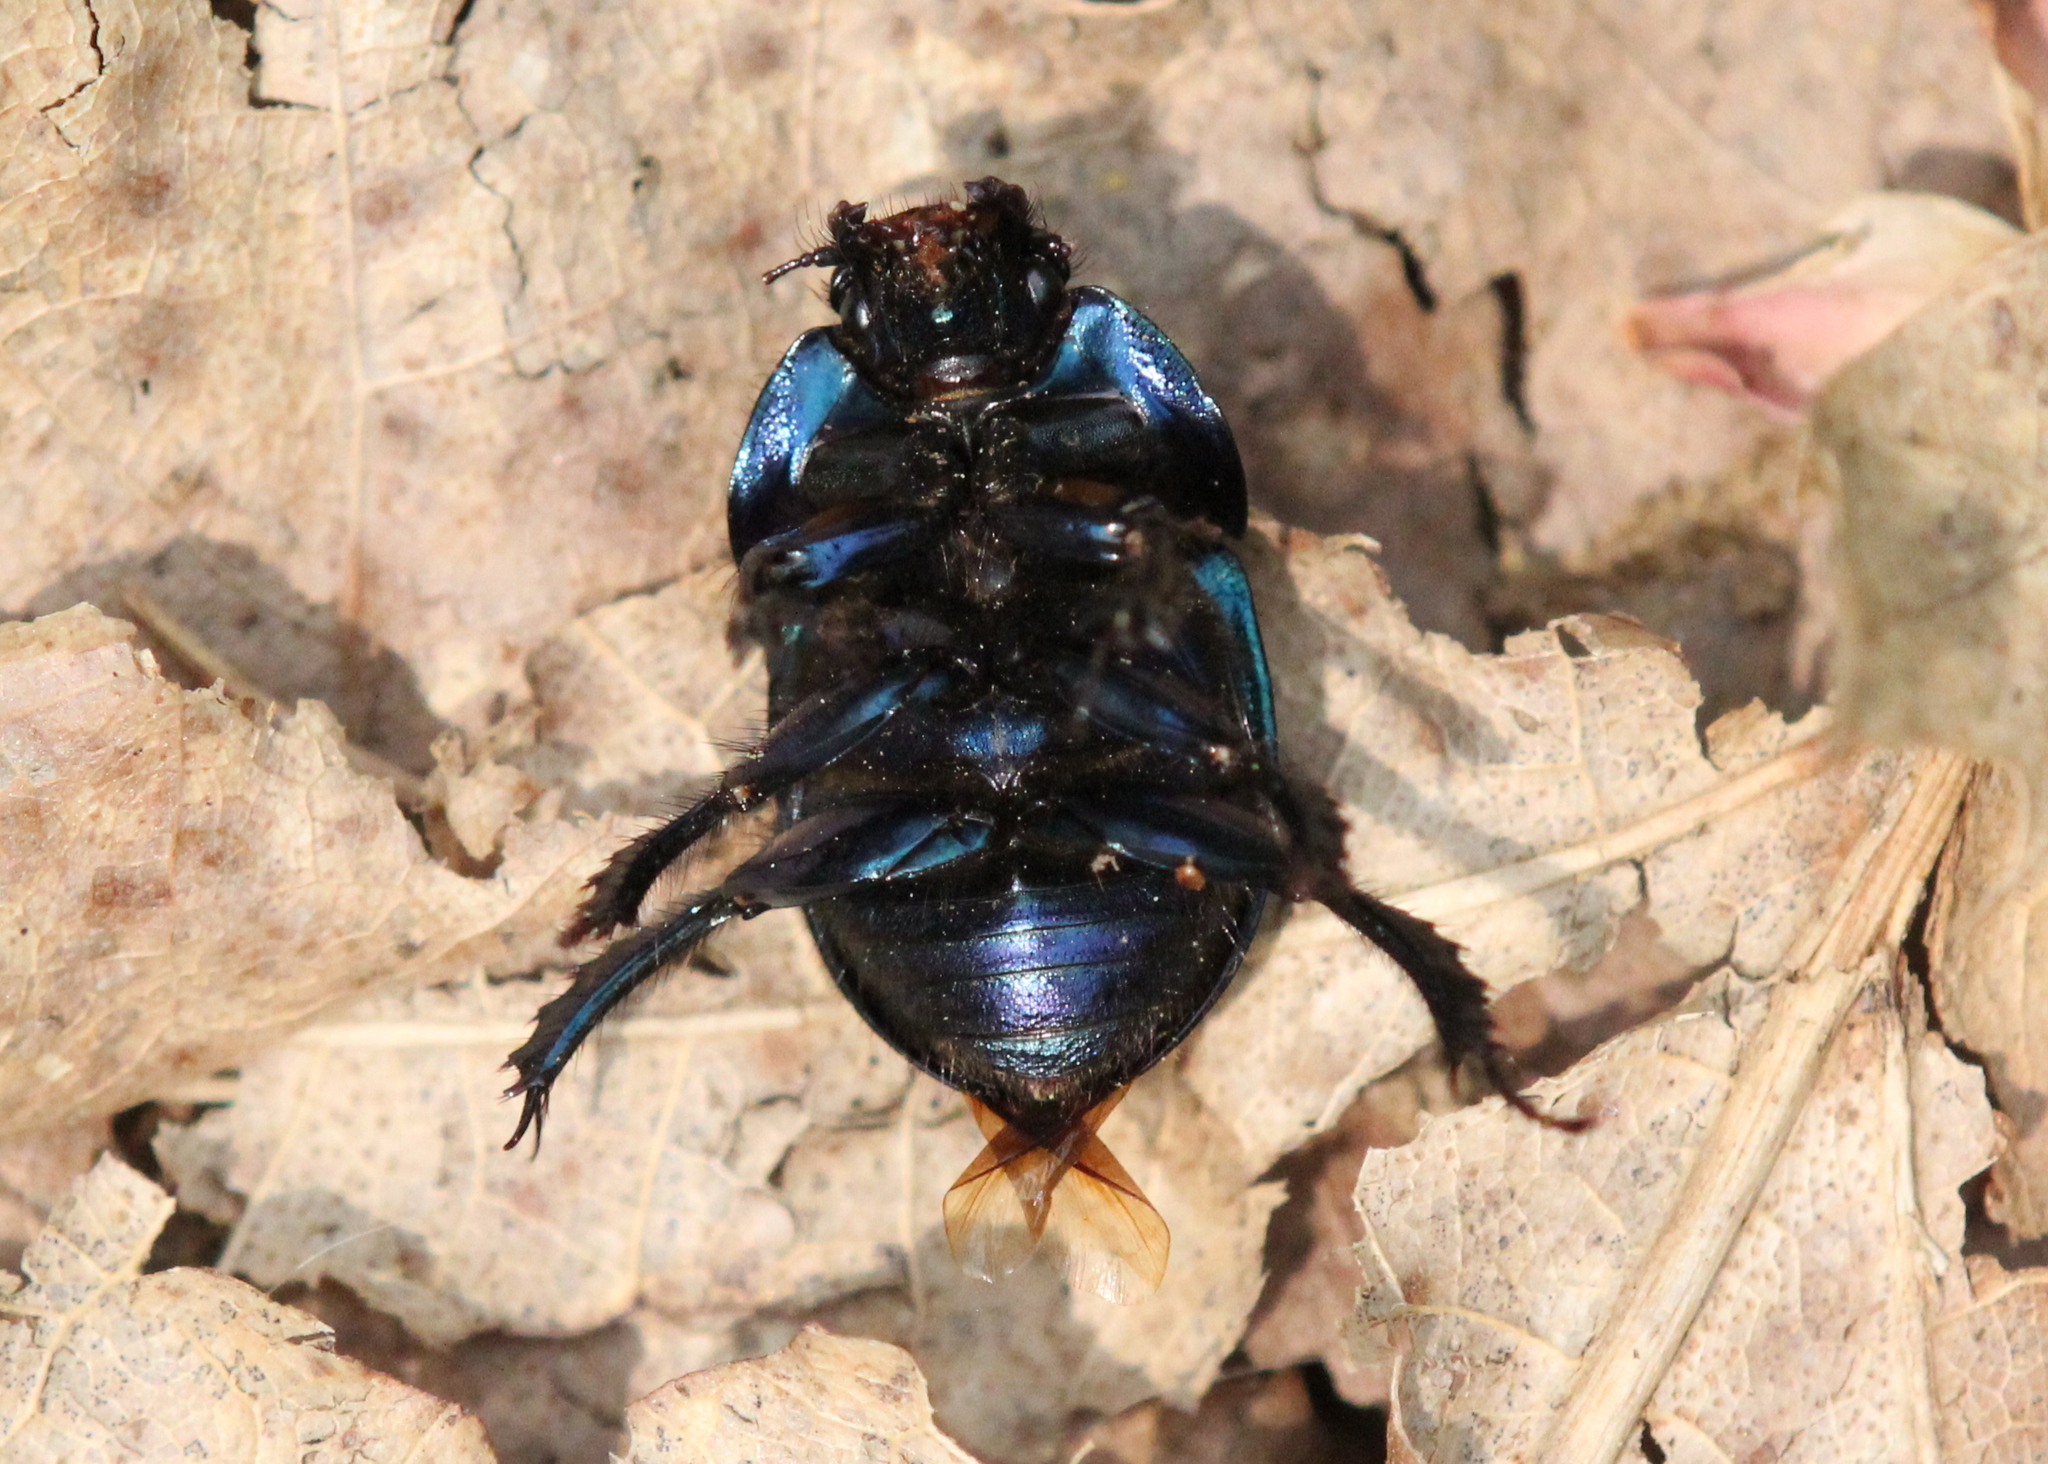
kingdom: Animalia
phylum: Arthropoda
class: Insecta
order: Coleoptera
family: Geotrupidae
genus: Geotrupes
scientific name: Geotrupes splendidus
